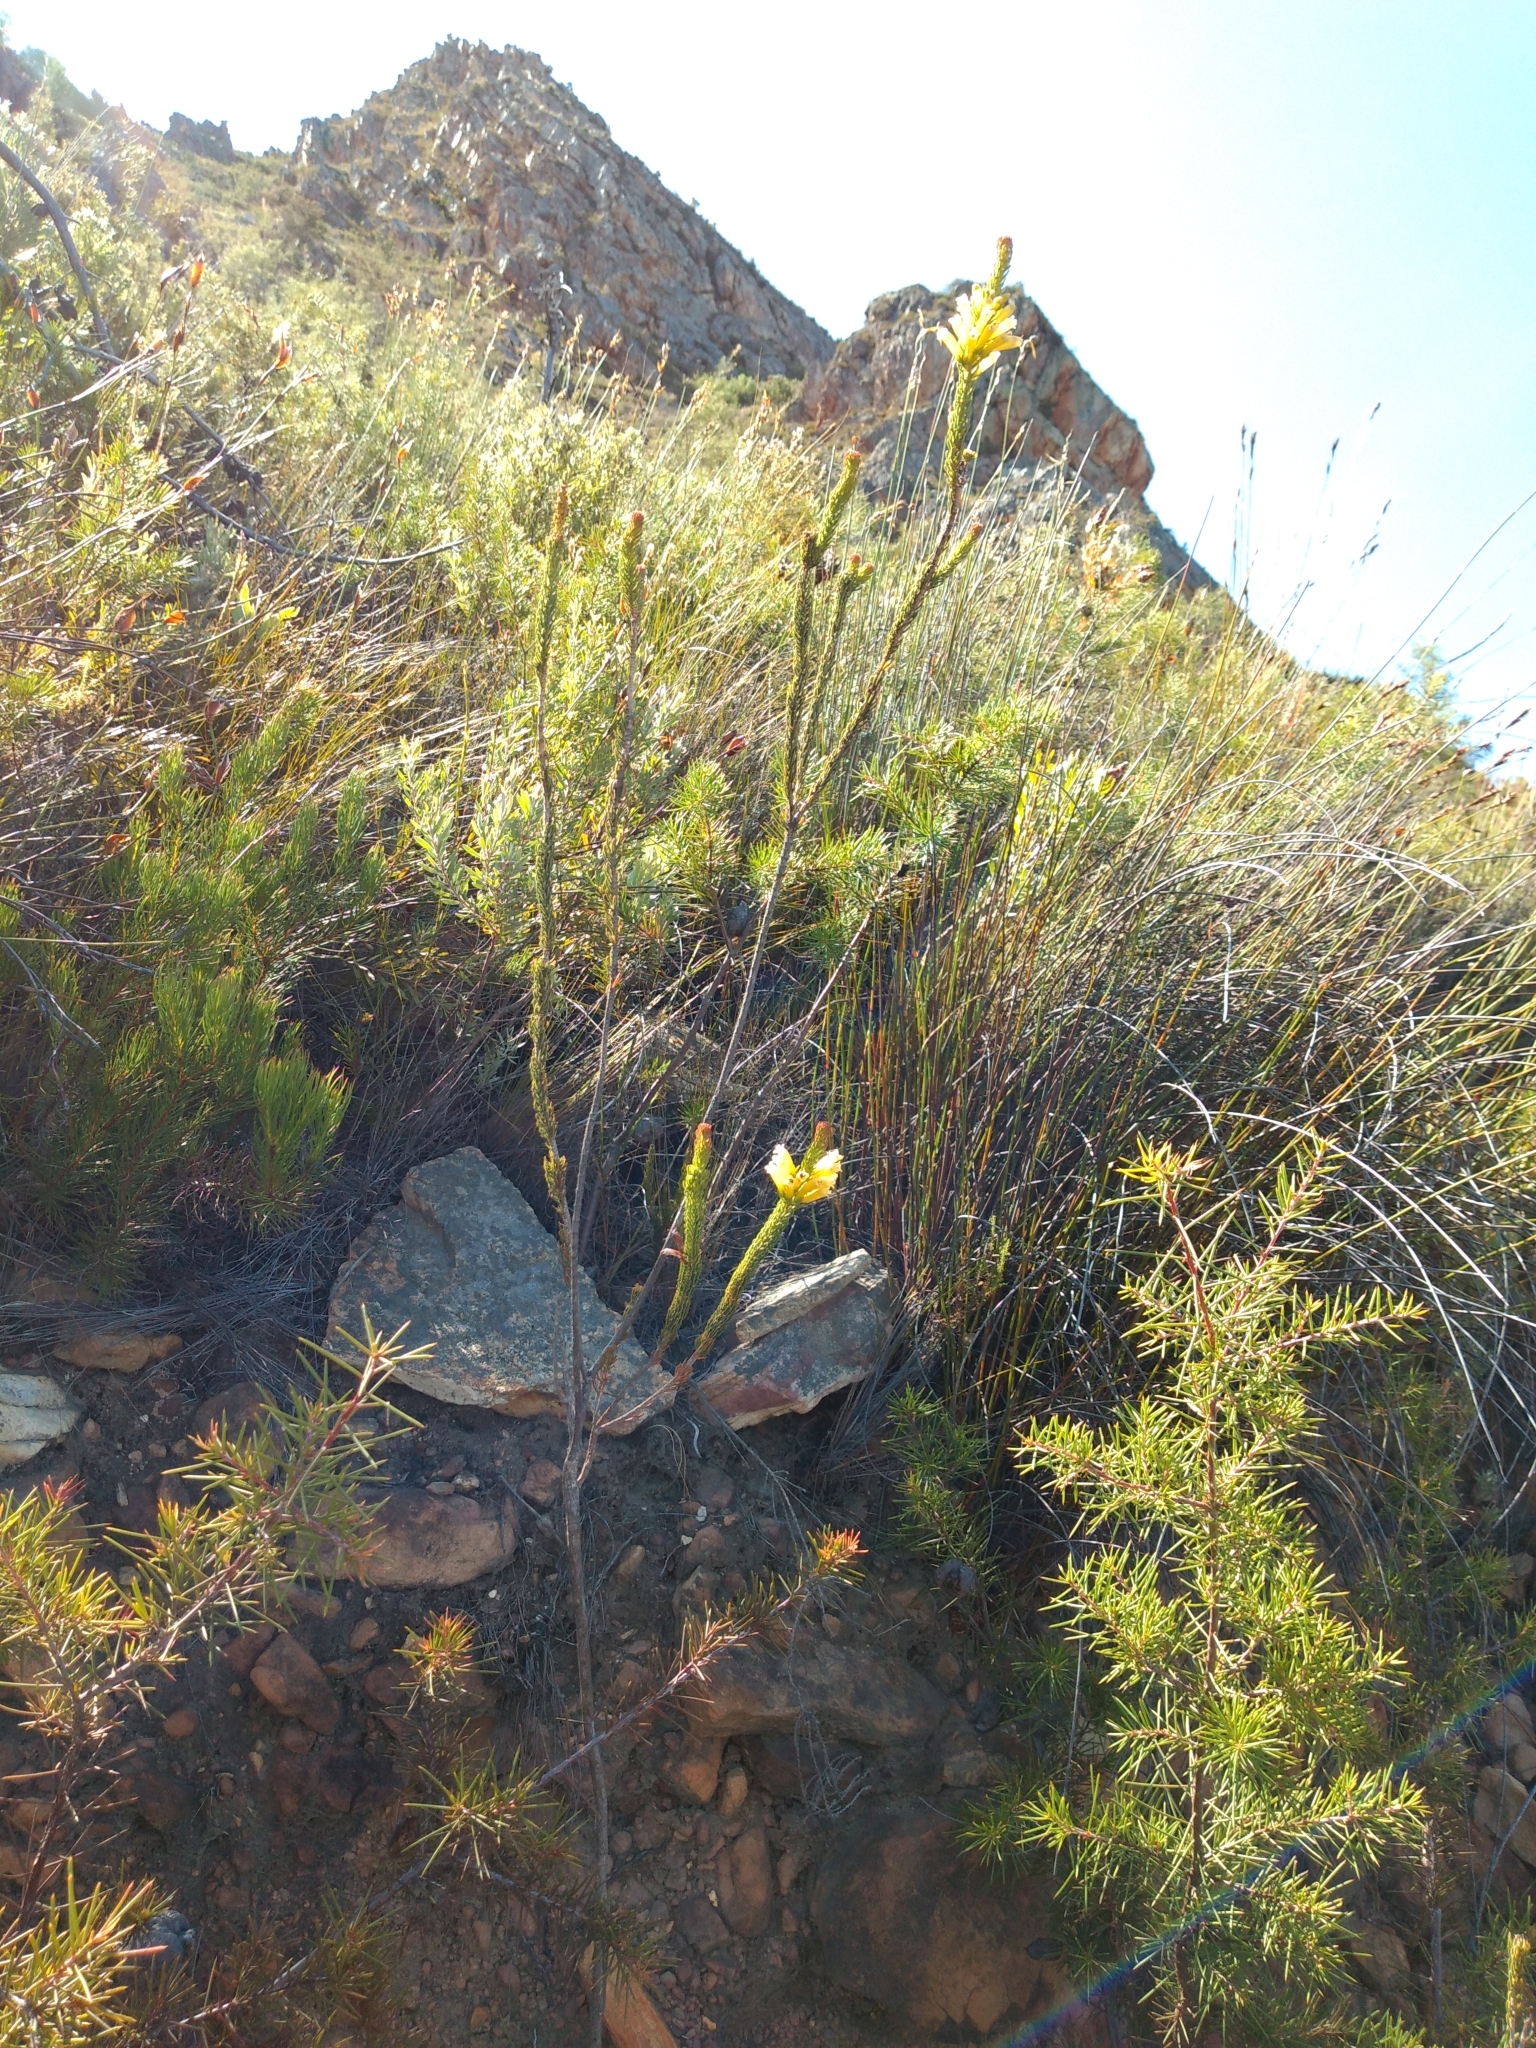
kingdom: Plantae
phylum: Tracheophyta
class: Magnoliopsida
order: Proteales
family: Proteaceae
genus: Hakea
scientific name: Hakea sericea
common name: Needle bush
